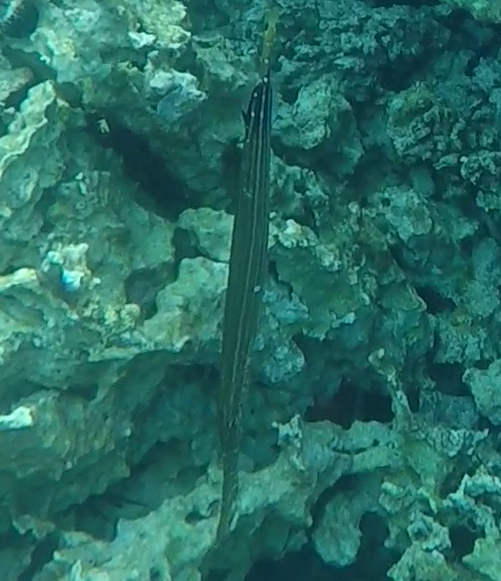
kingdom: Animalia
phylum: Chordata
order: Syngnathiformes
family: Aulostomidae
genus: Aulostomus
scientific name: Aulostomus chinensis
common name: Chinese trumpetfish
